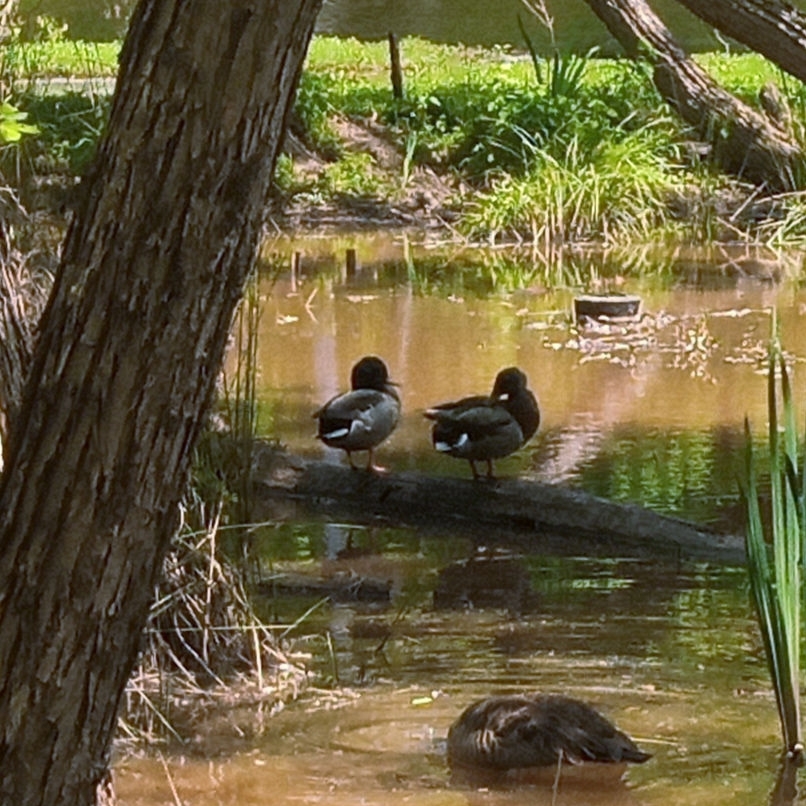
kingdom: Animalia
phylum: Chordata
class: Aves
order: Anseriformes
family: Anatidae
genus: Anas
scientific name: Anas platyrhynchos
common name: Mallard
